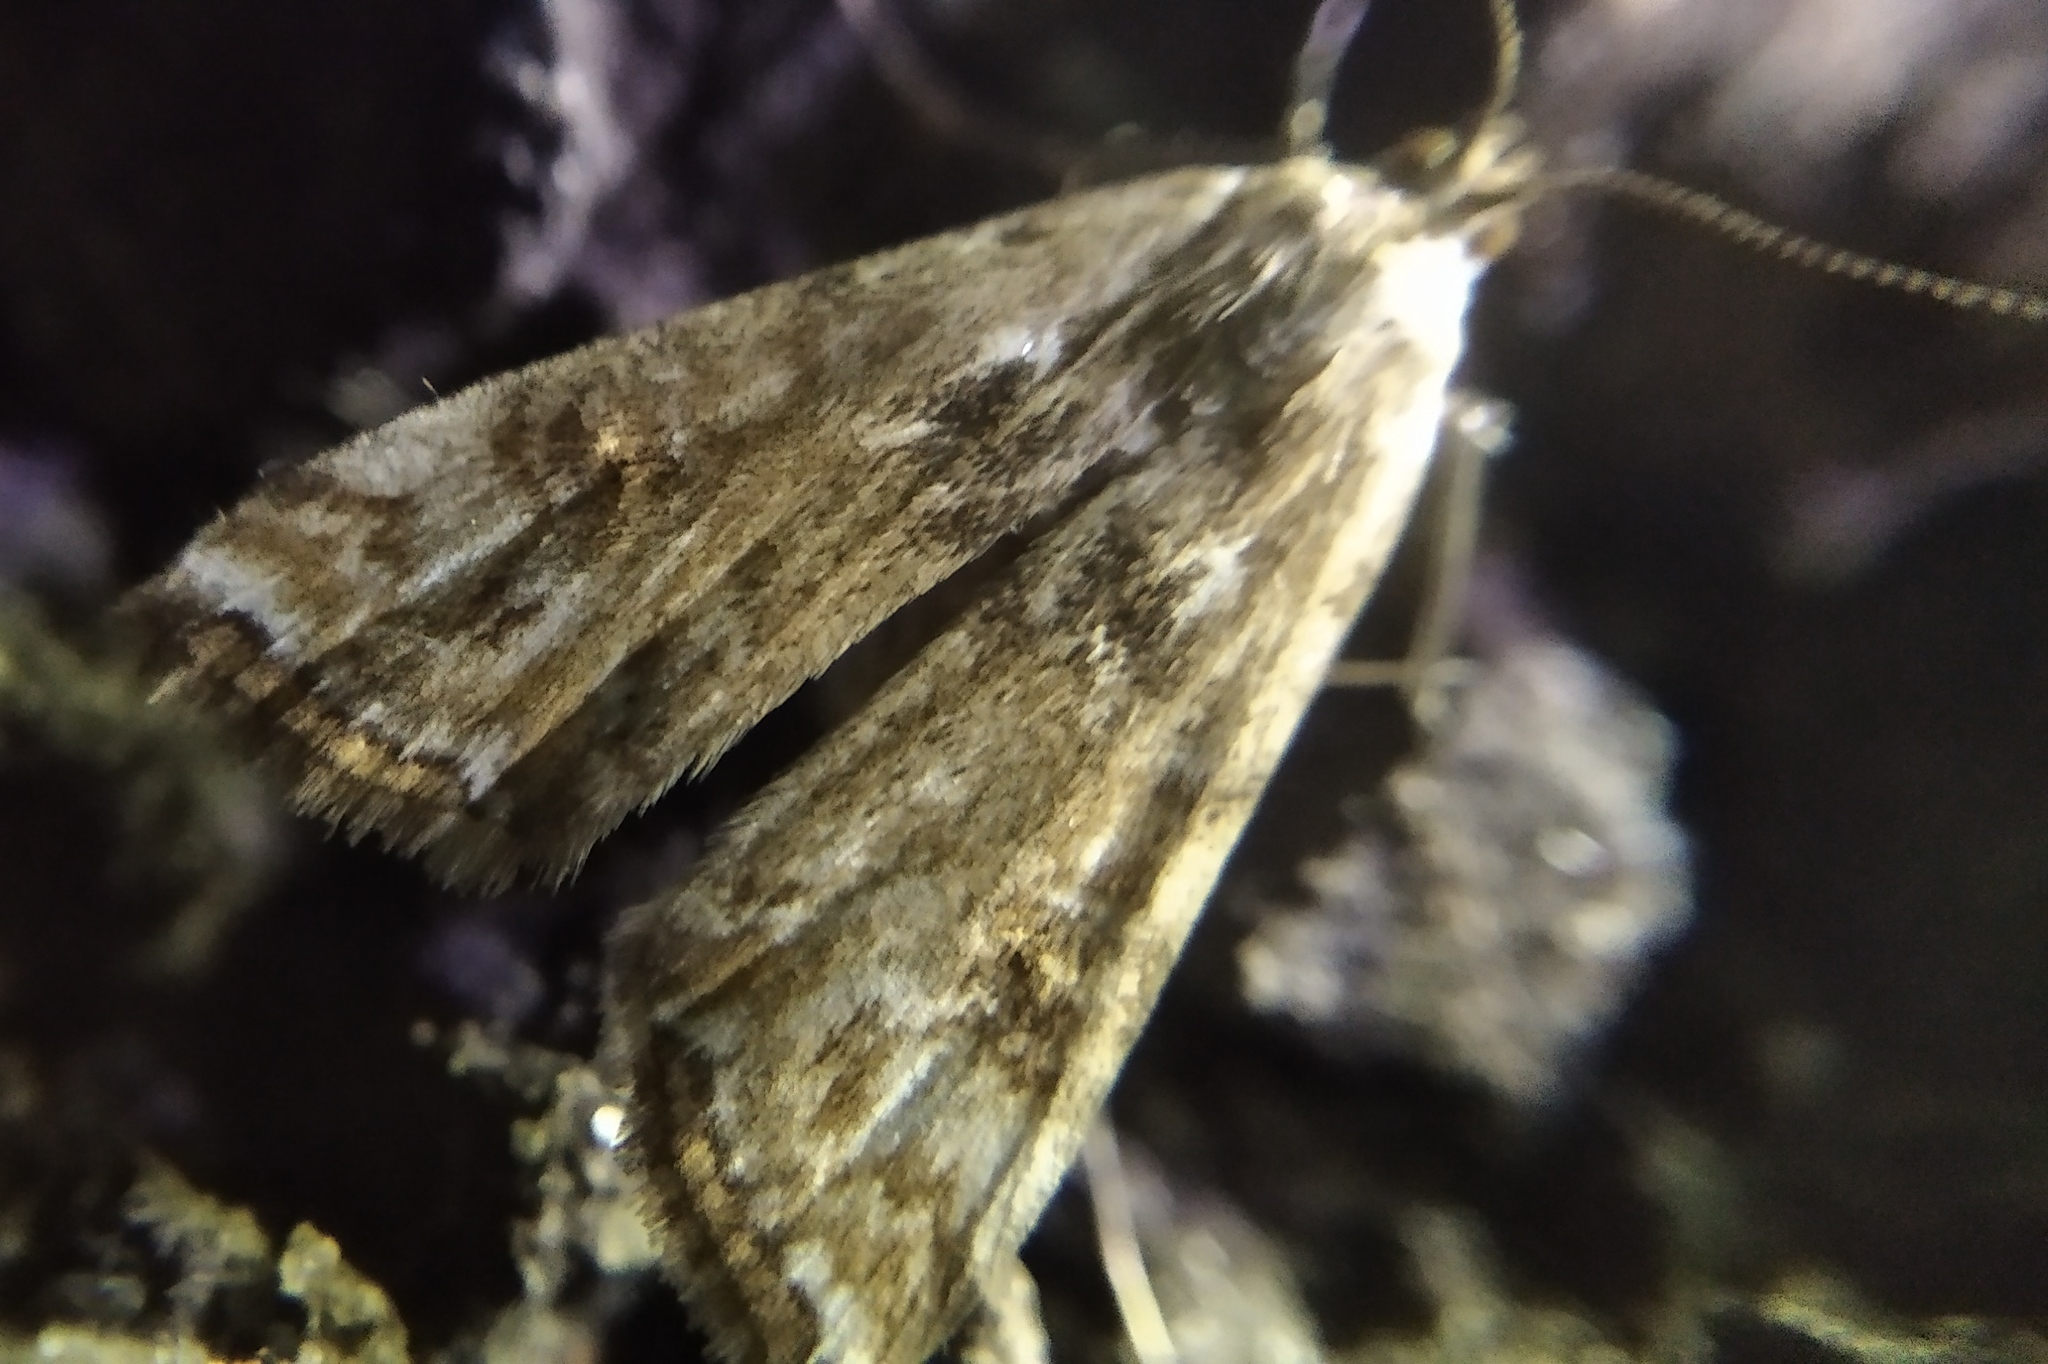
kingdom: Animalia
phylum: Arthropoda
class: Insecta
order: Lepidoptera
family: Crambidae
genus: Cataclysta
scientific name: Cataclysta lemnata
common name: Small china-mark
